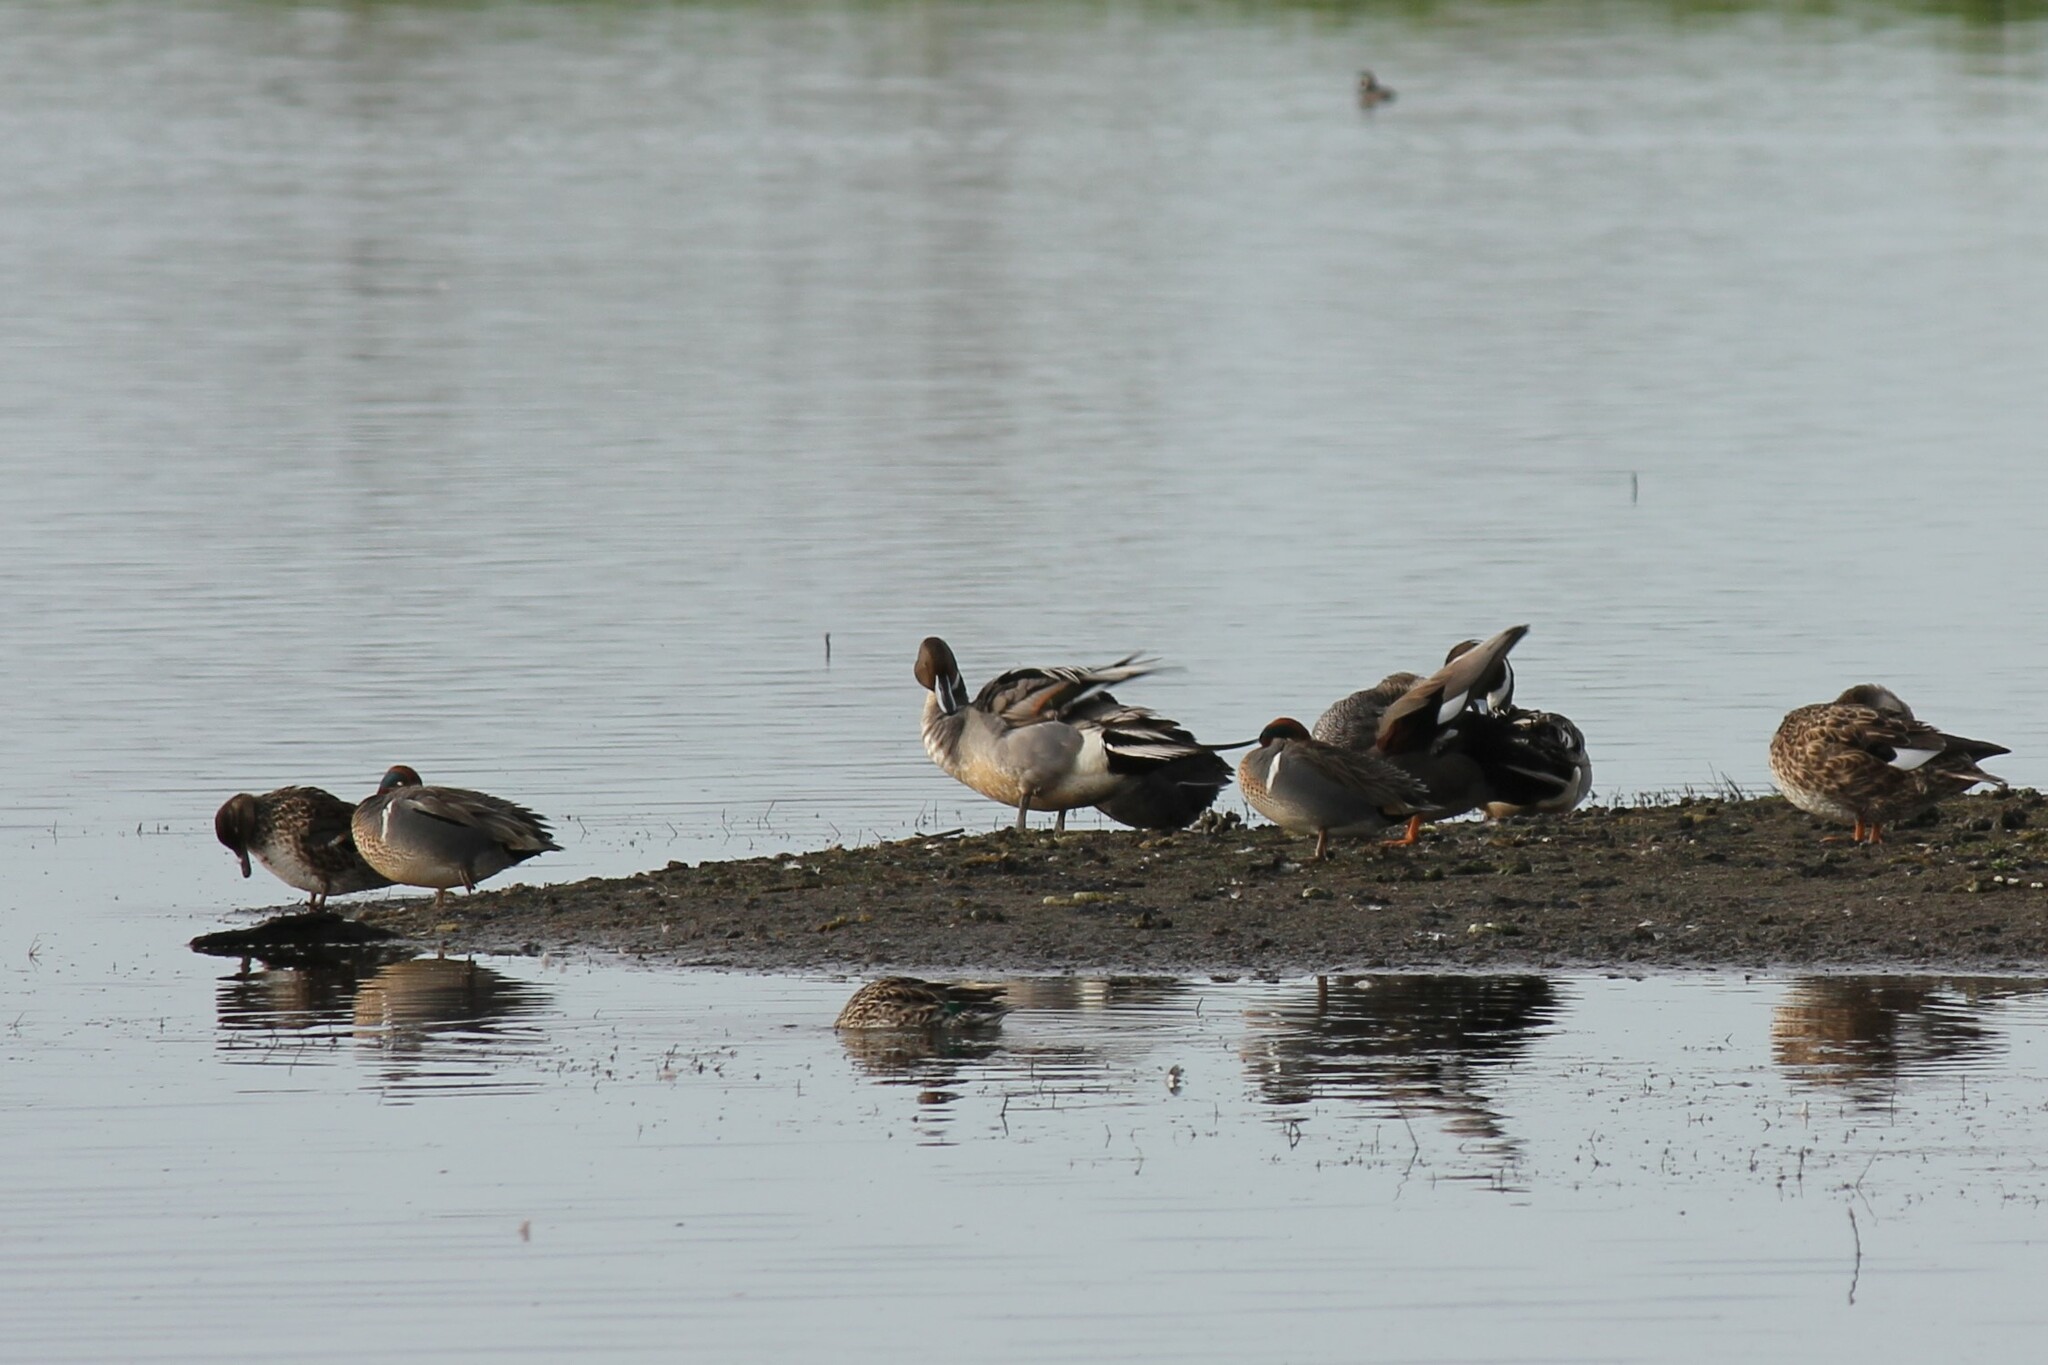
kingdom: Animalia
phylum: Chordata
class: Aves
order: Anseriformes
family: Anatidae
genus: Anas
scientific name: Anas acuta
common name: Northern pintail
